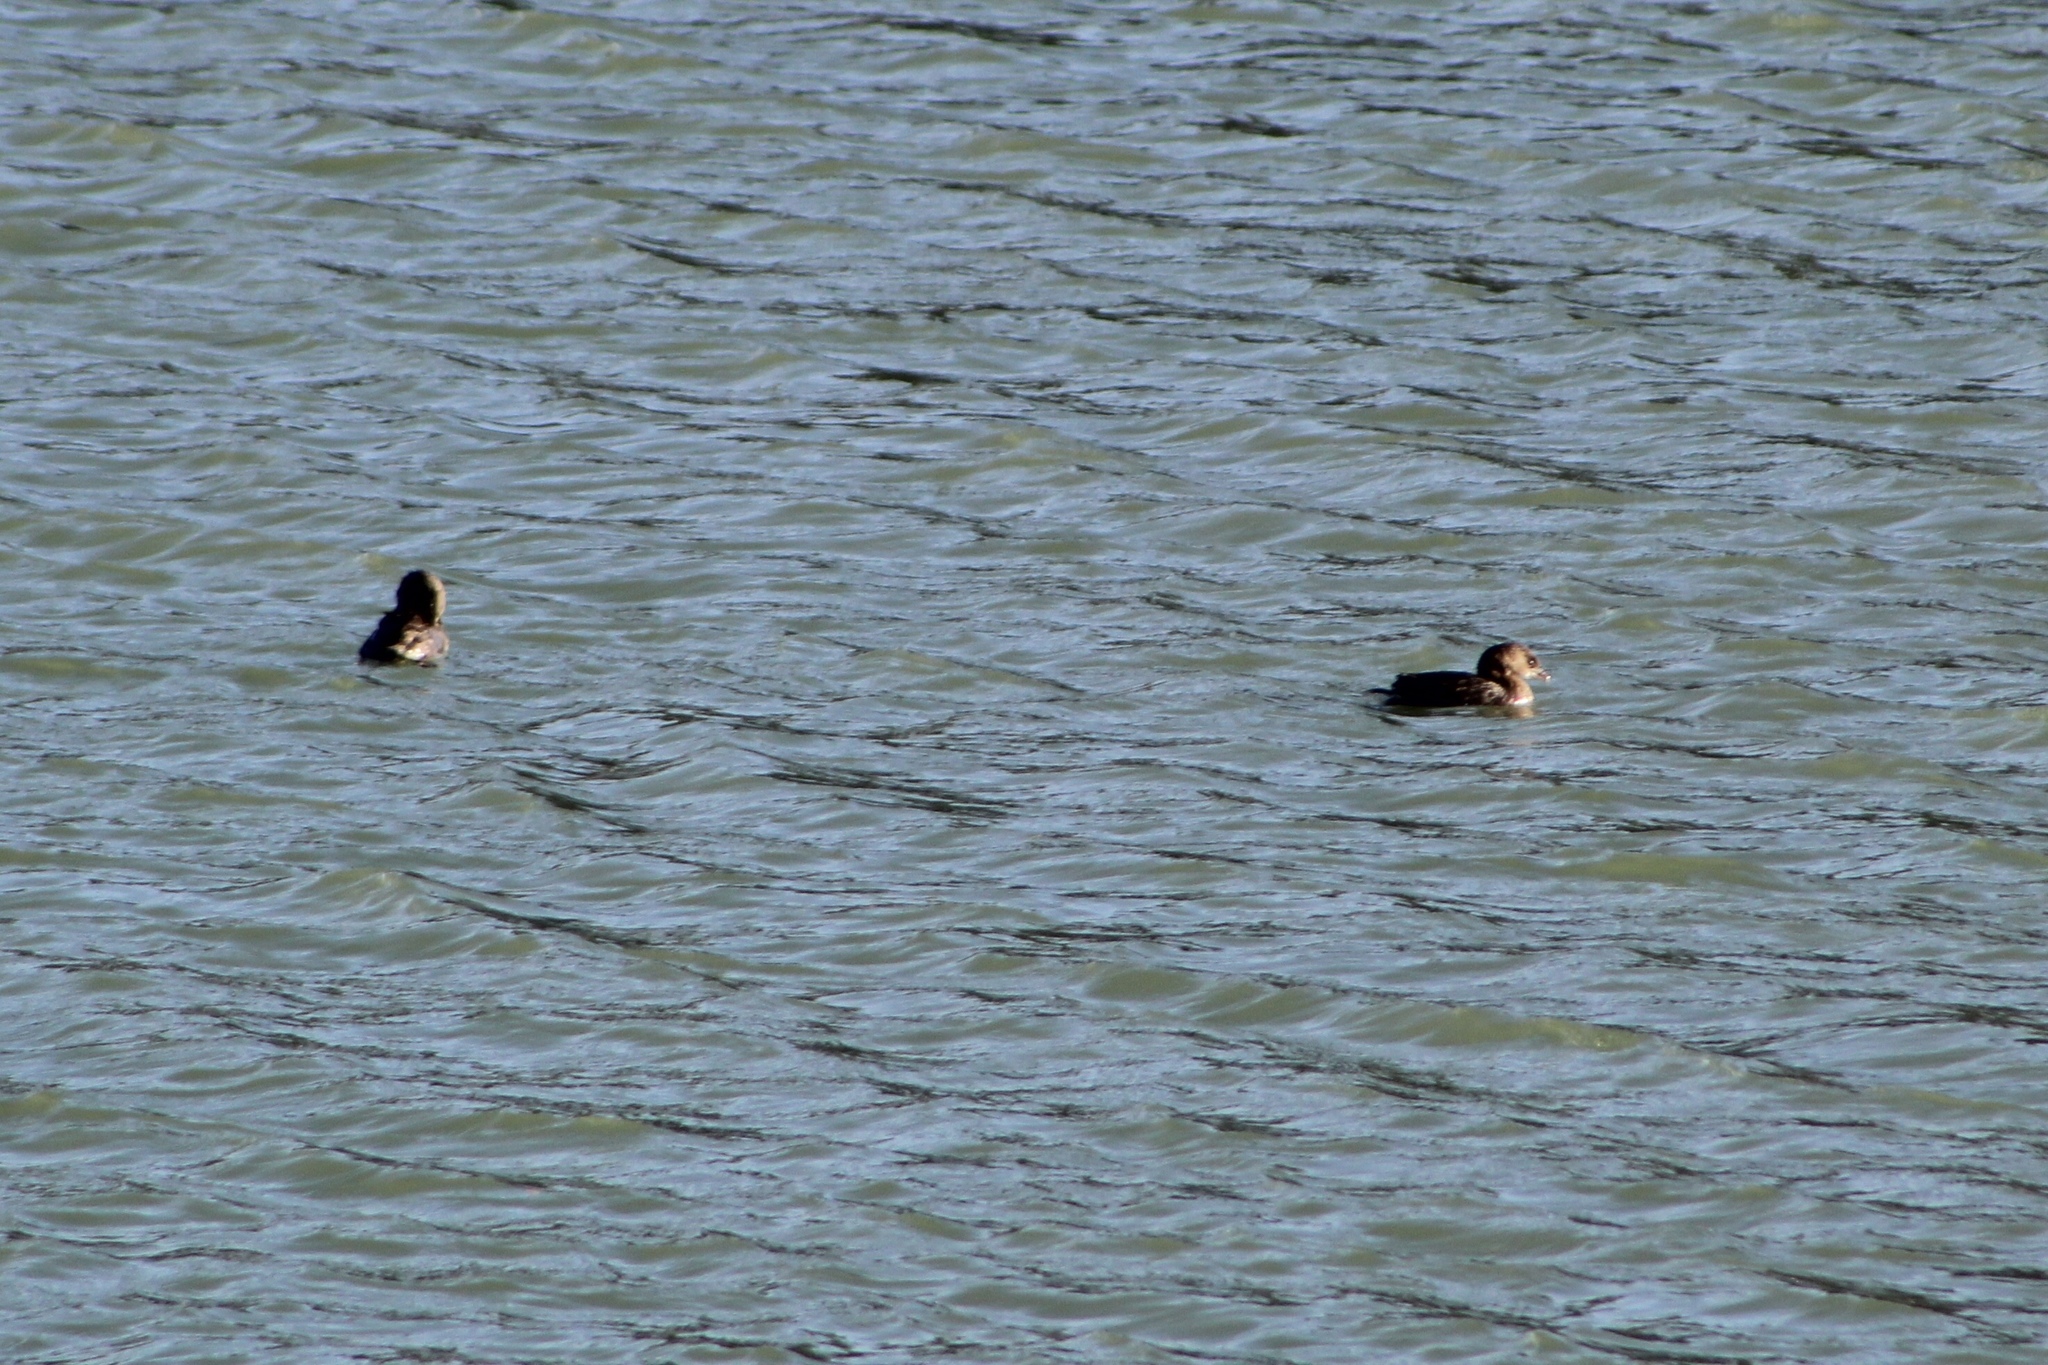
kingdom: Animalia
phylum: Chordata
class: Aves
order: Podicipediformes
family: Podicipedidae
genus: Podilymbus
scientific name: Podilymbus podiceps
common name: Pied-billed grebe
